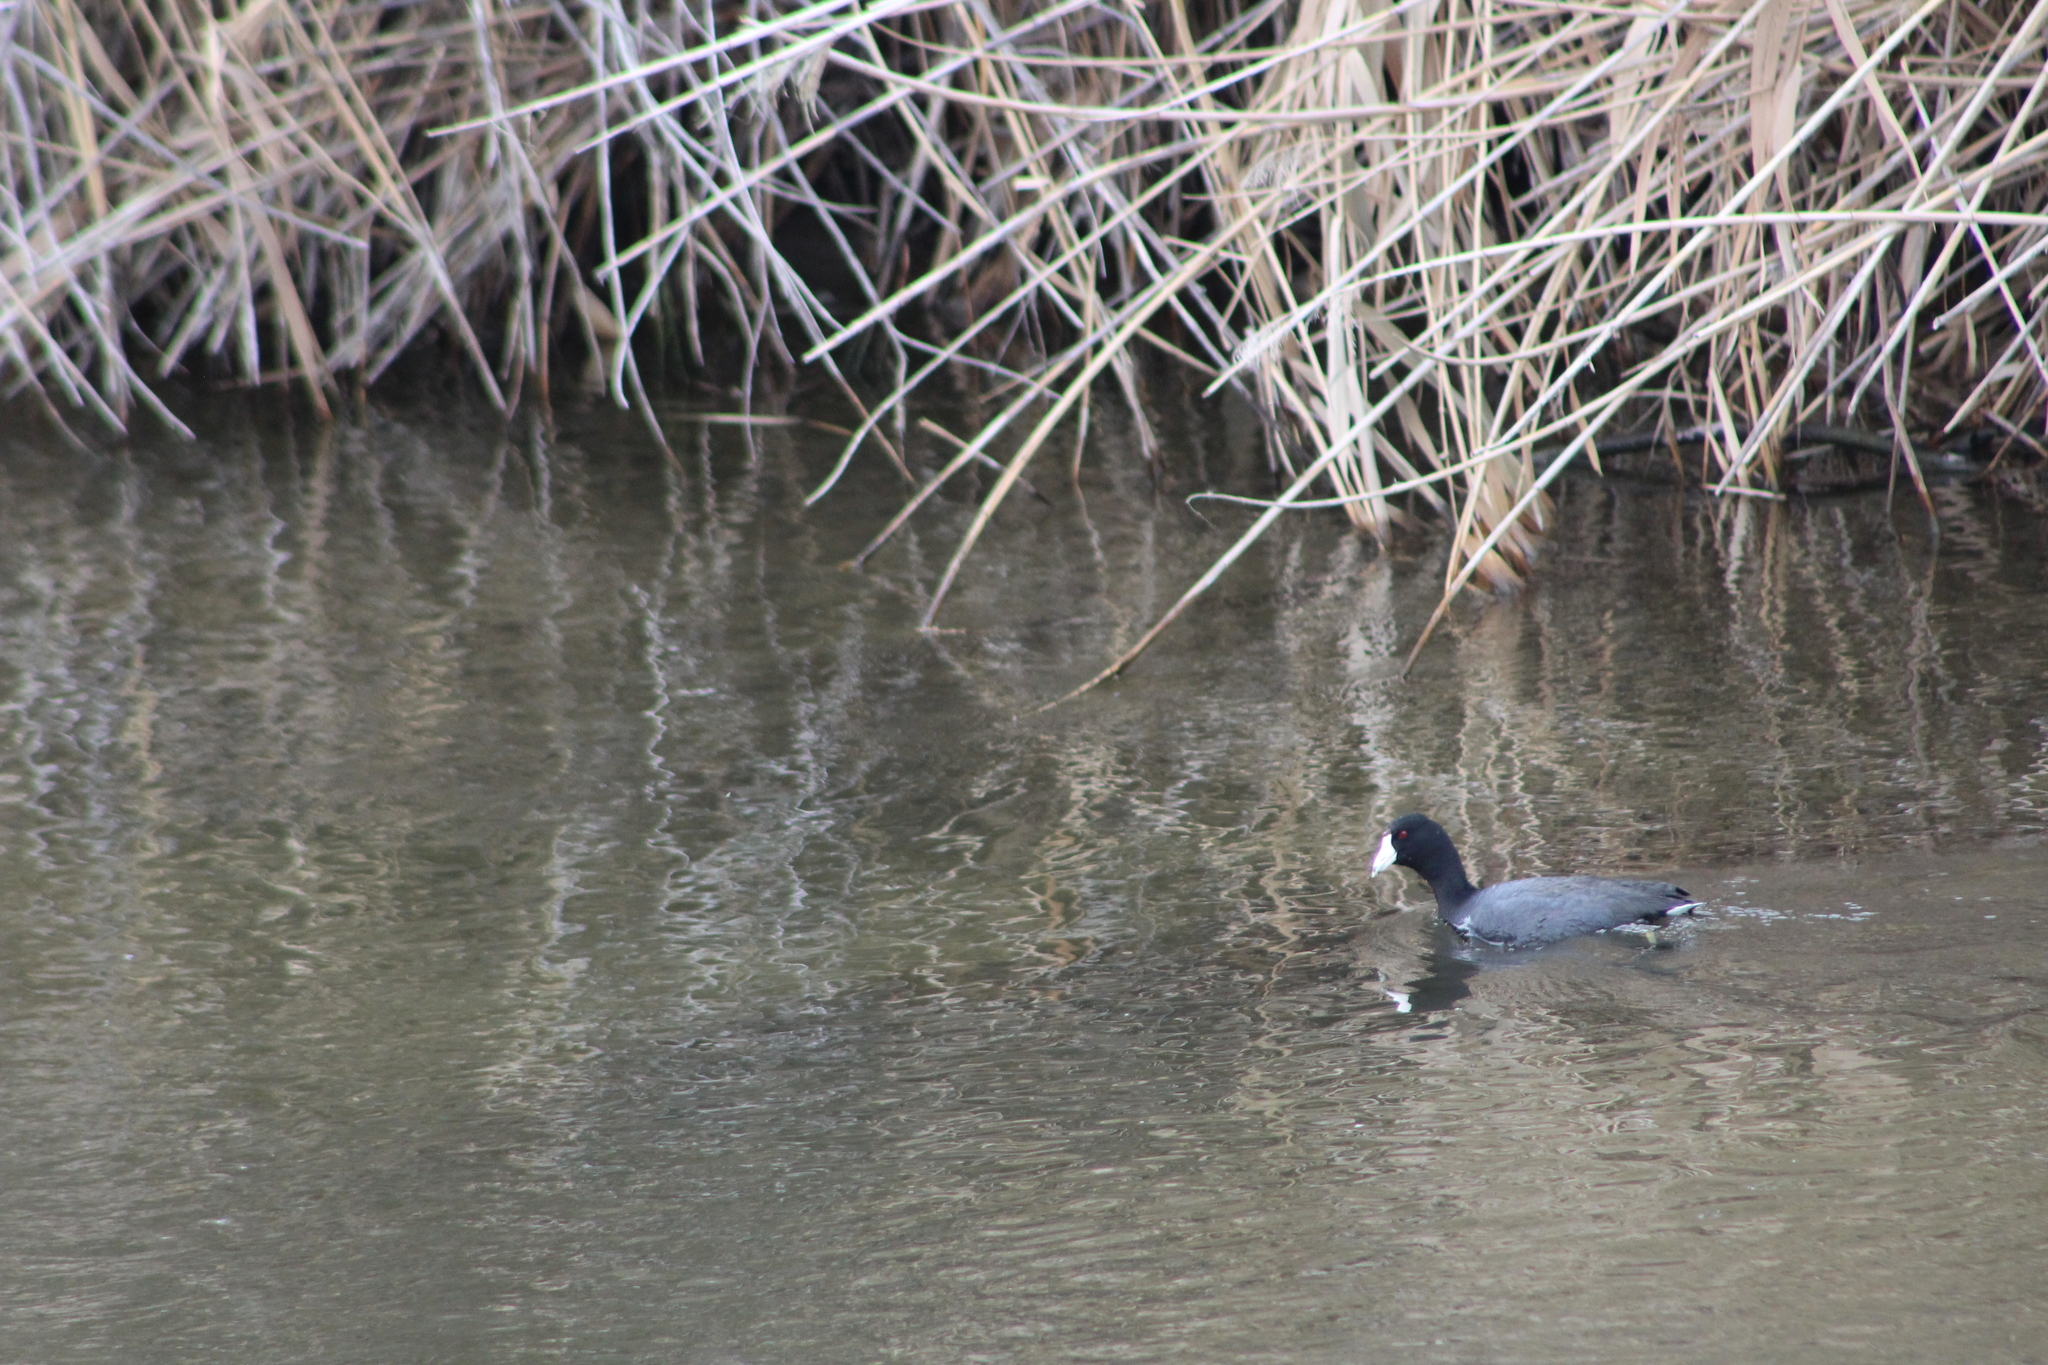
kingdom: Animalia
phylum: Chordata
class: Aves
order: Gruiformes
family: Rallidae
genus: Fulica
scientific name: Fulica americana
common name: American coot
